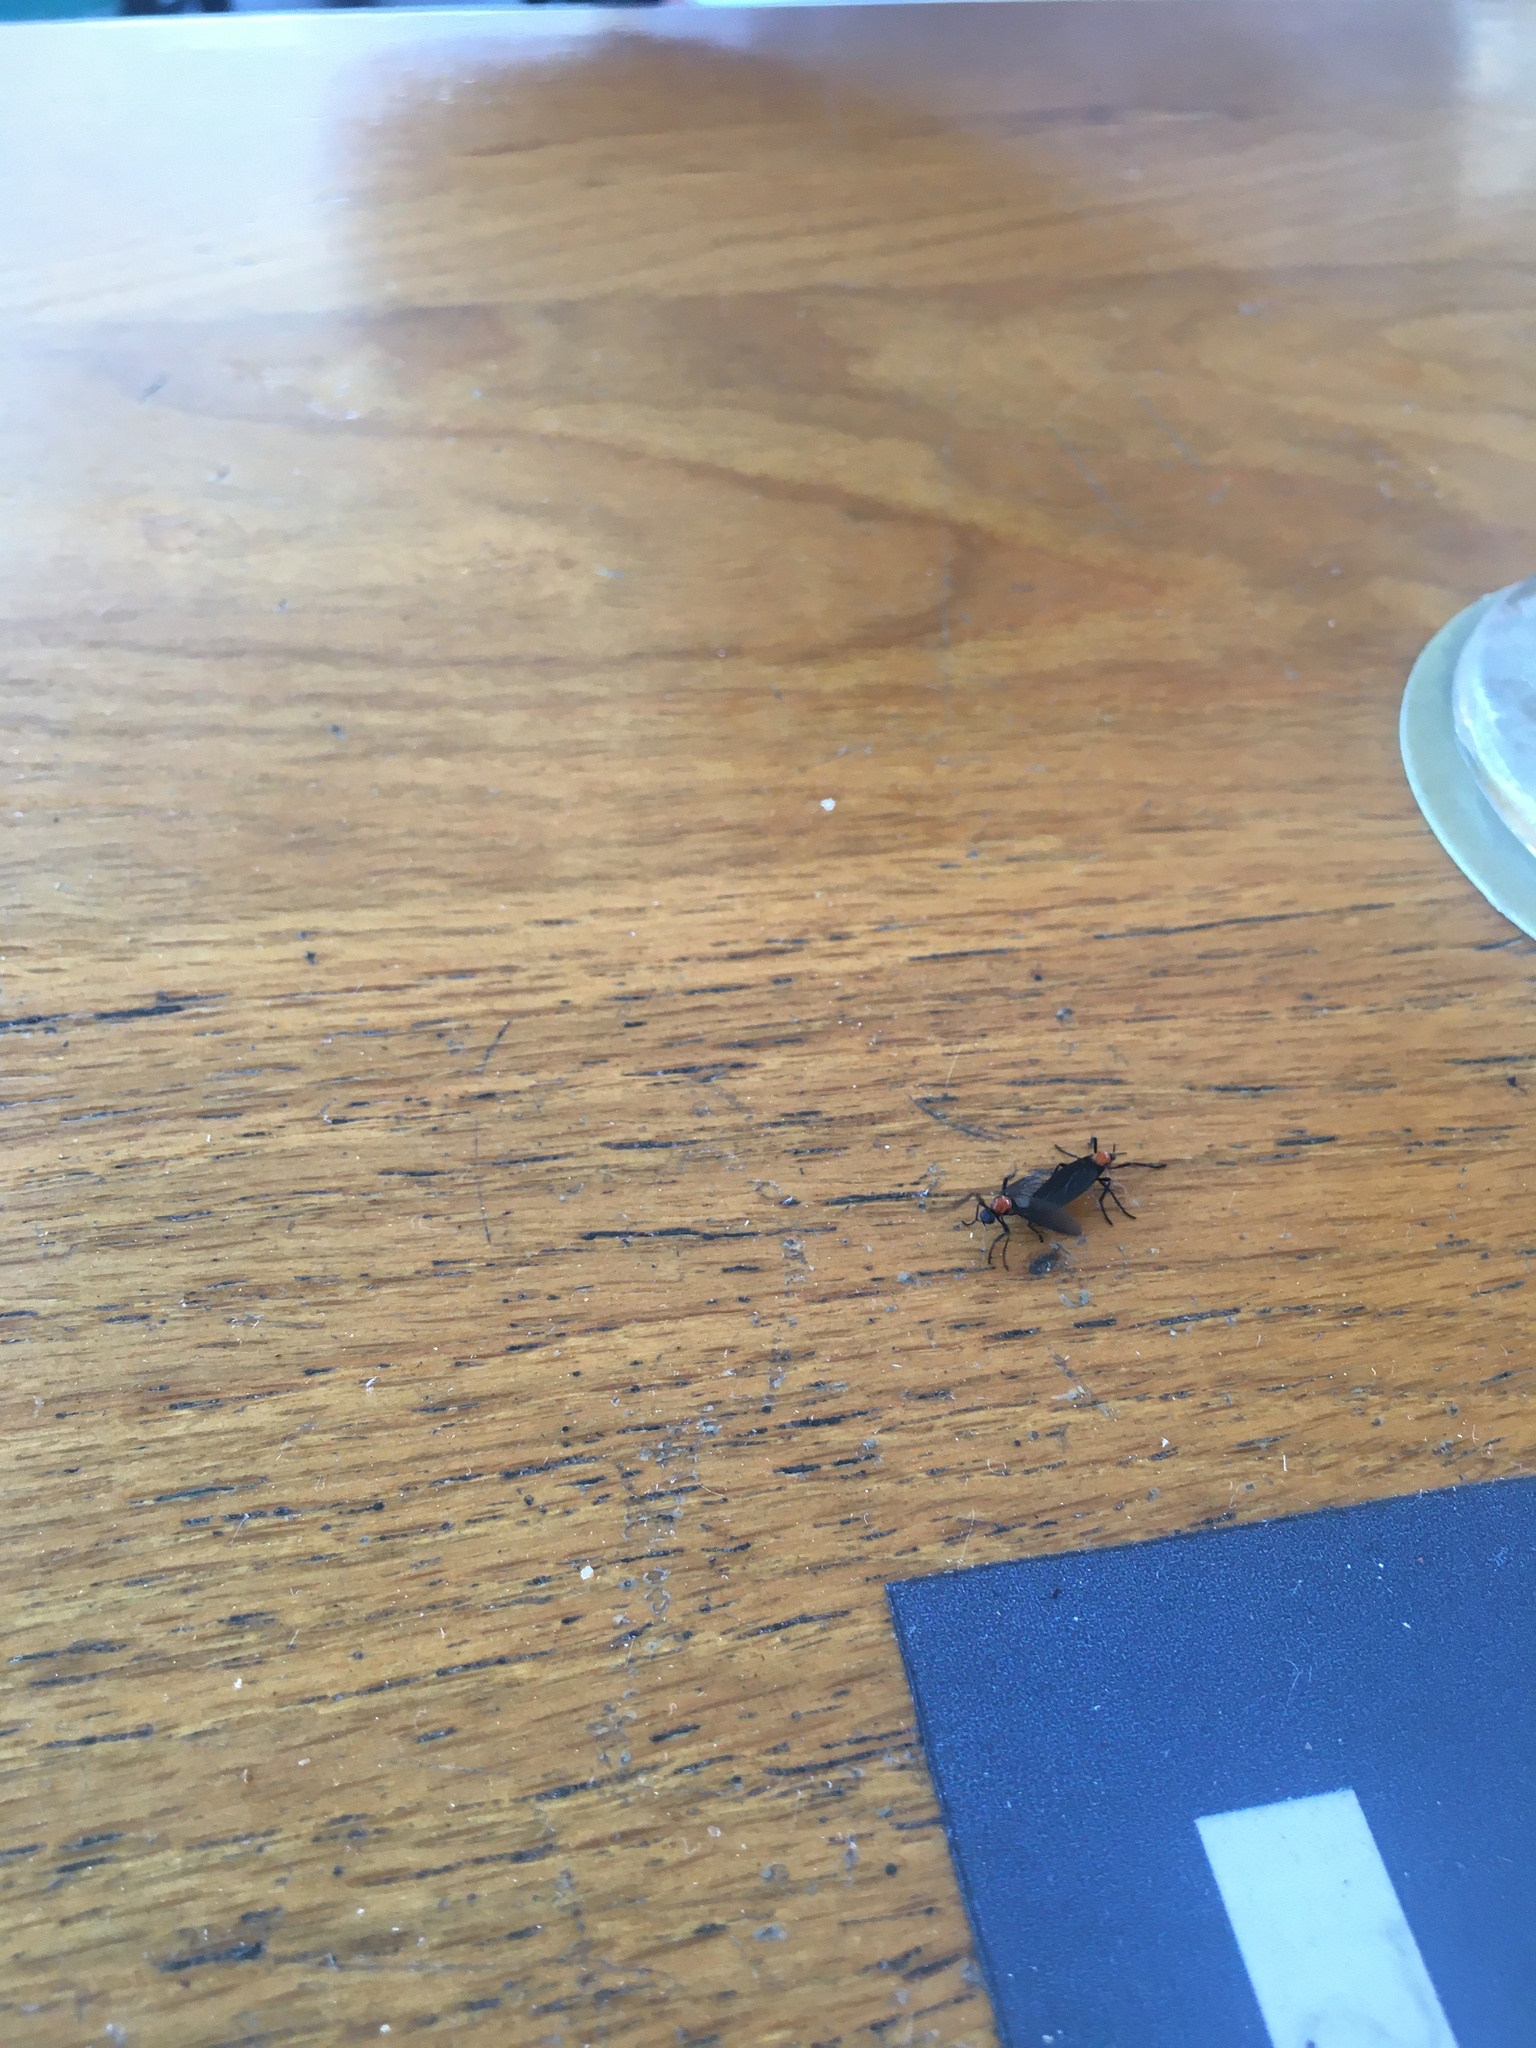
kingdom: Animalia
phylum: Arthropoda
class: Insecta
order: Diptera
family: Bibionidae
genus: Plecia
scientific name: Plecia nearctica
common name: March fly
